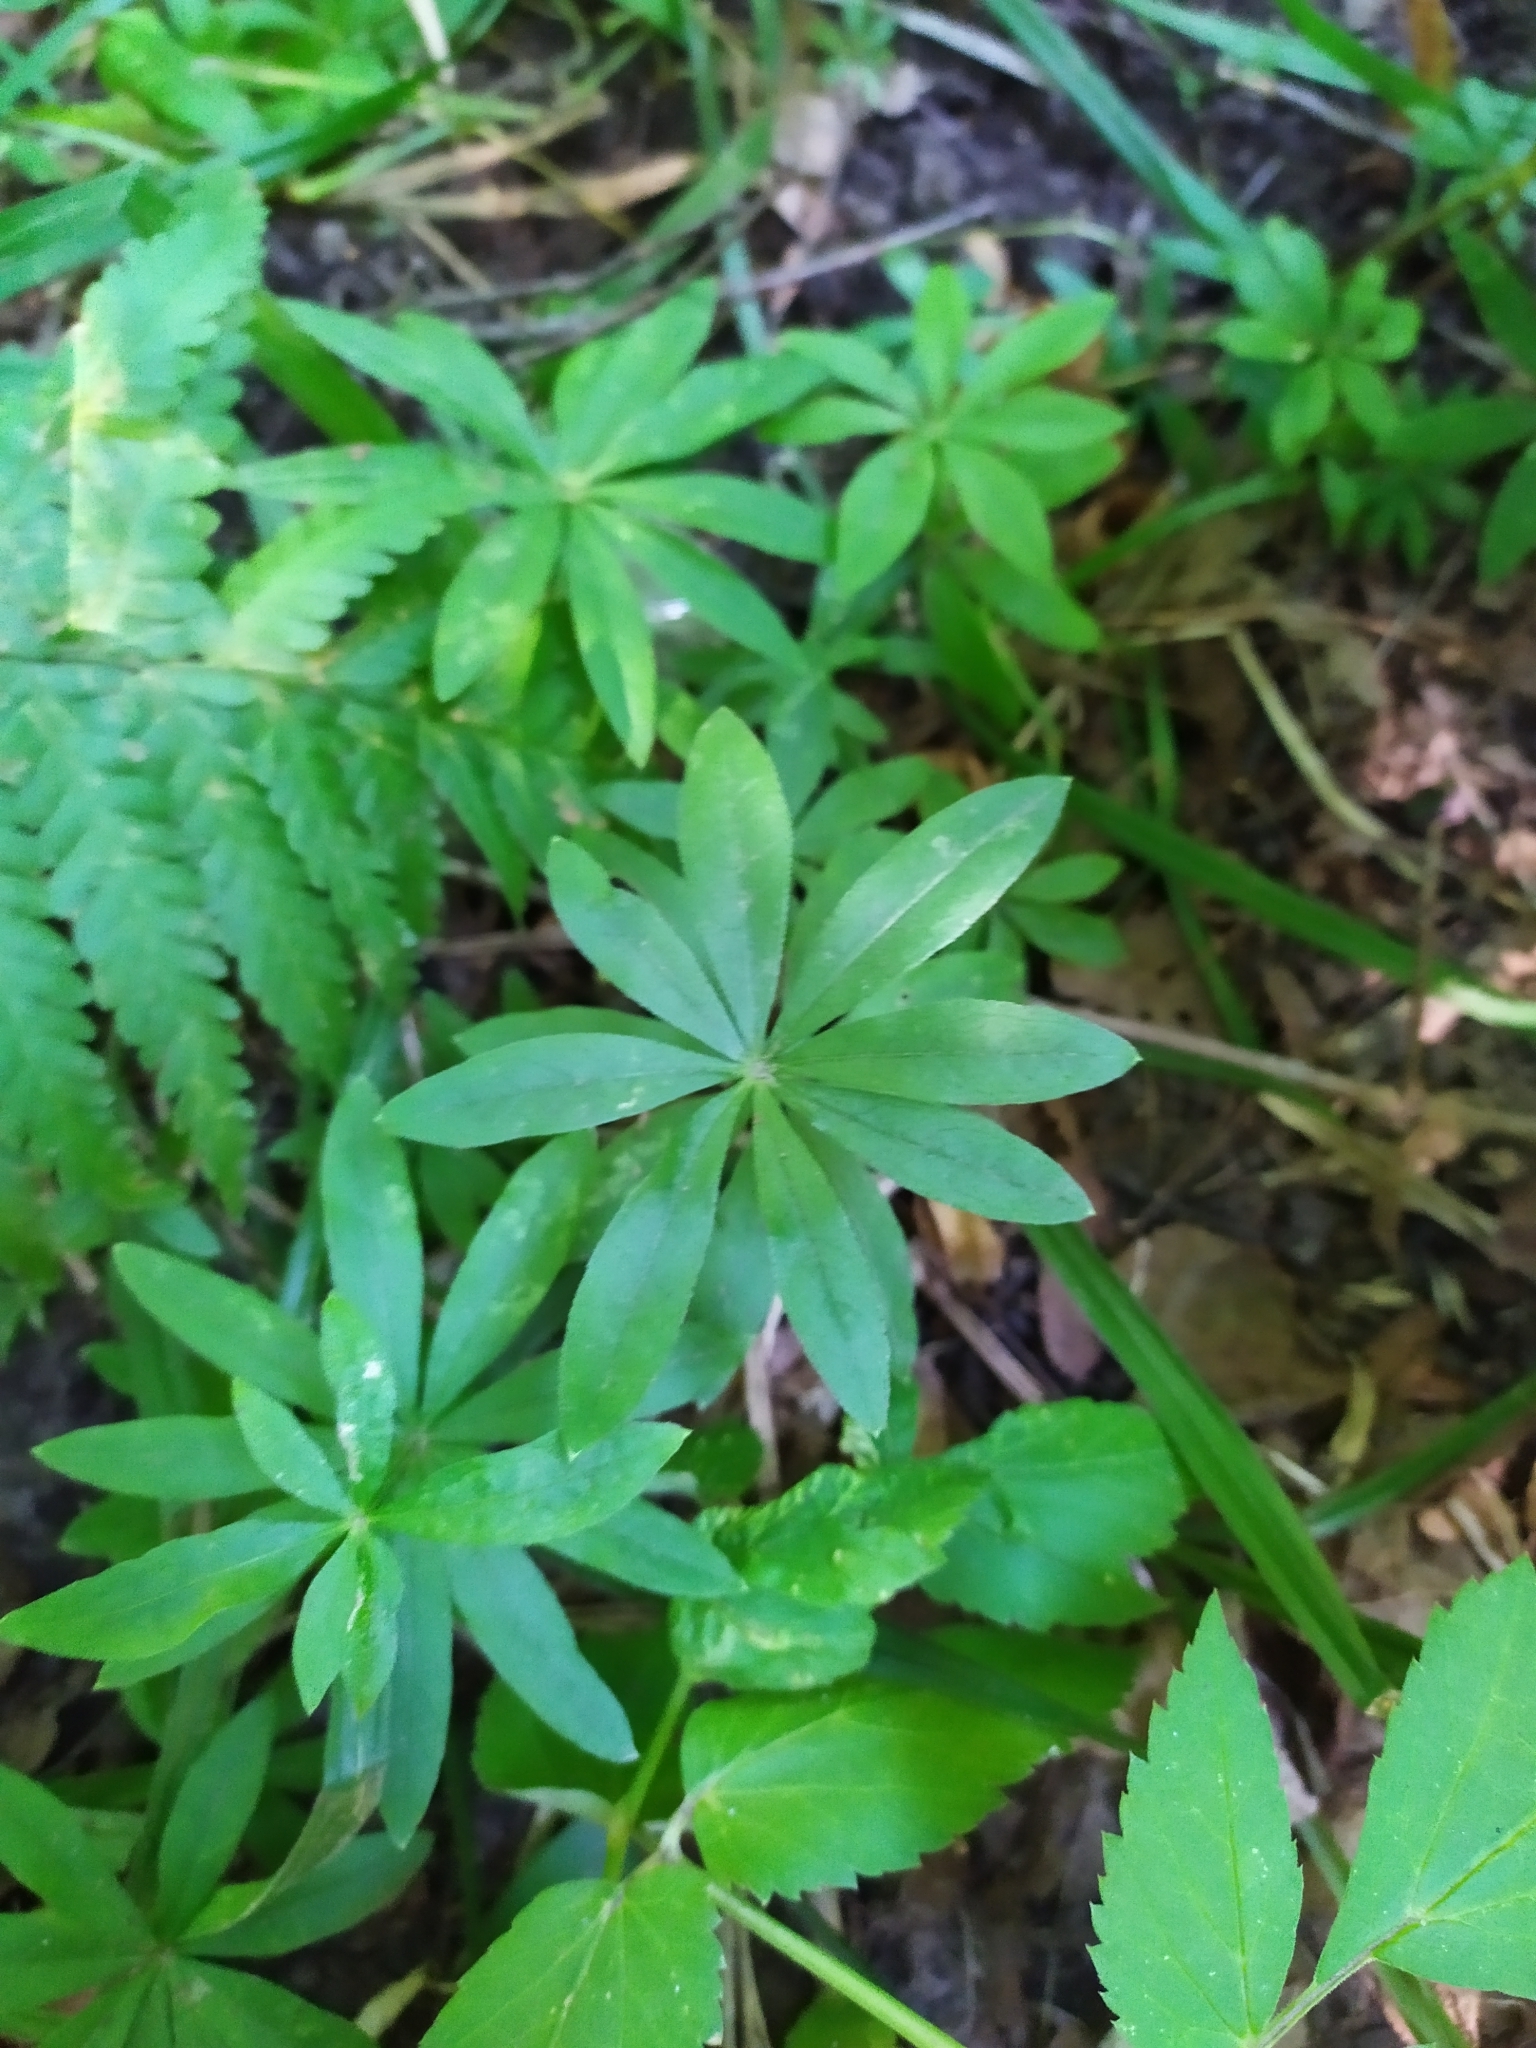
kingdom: Plantae
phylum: Tracheophyta
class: Magnoliopsida
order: Gentianales
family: Rubiaceae
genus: Galium
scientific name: Galium odoratum
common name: Sweet woodruff
